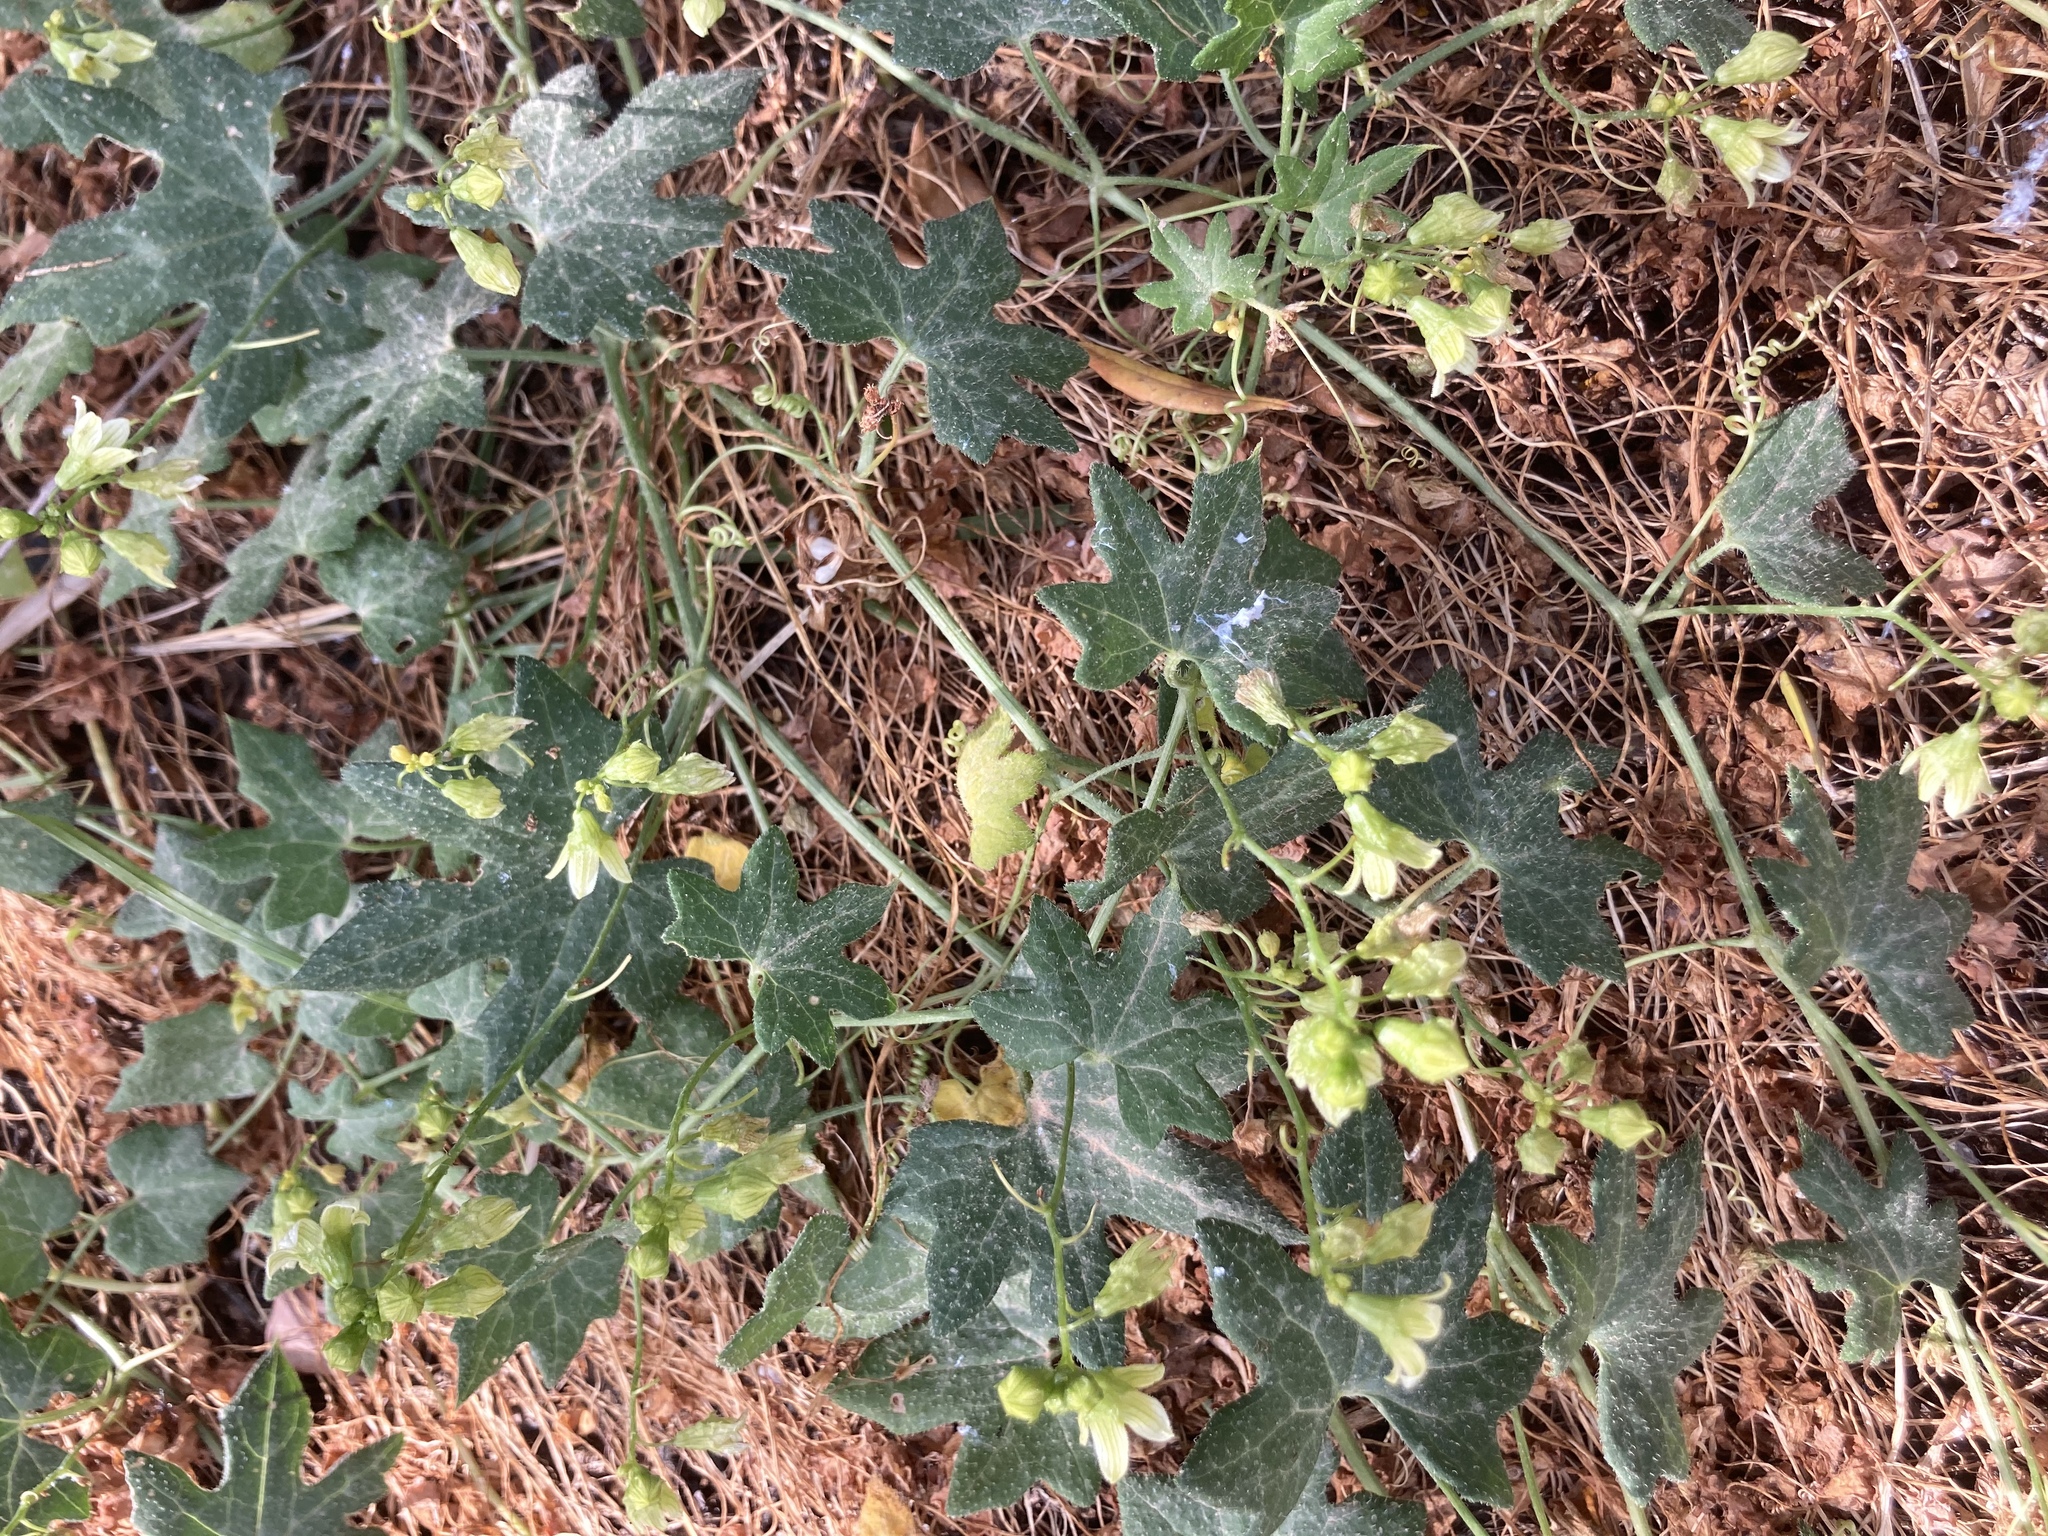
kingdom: Plantae
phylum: Tracheophyta
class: Magnoliopsida
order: Cucurbitales
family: Cucurbitaceae
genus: Bryonia
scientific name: Bryonia cretica
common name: Cretan bryony
